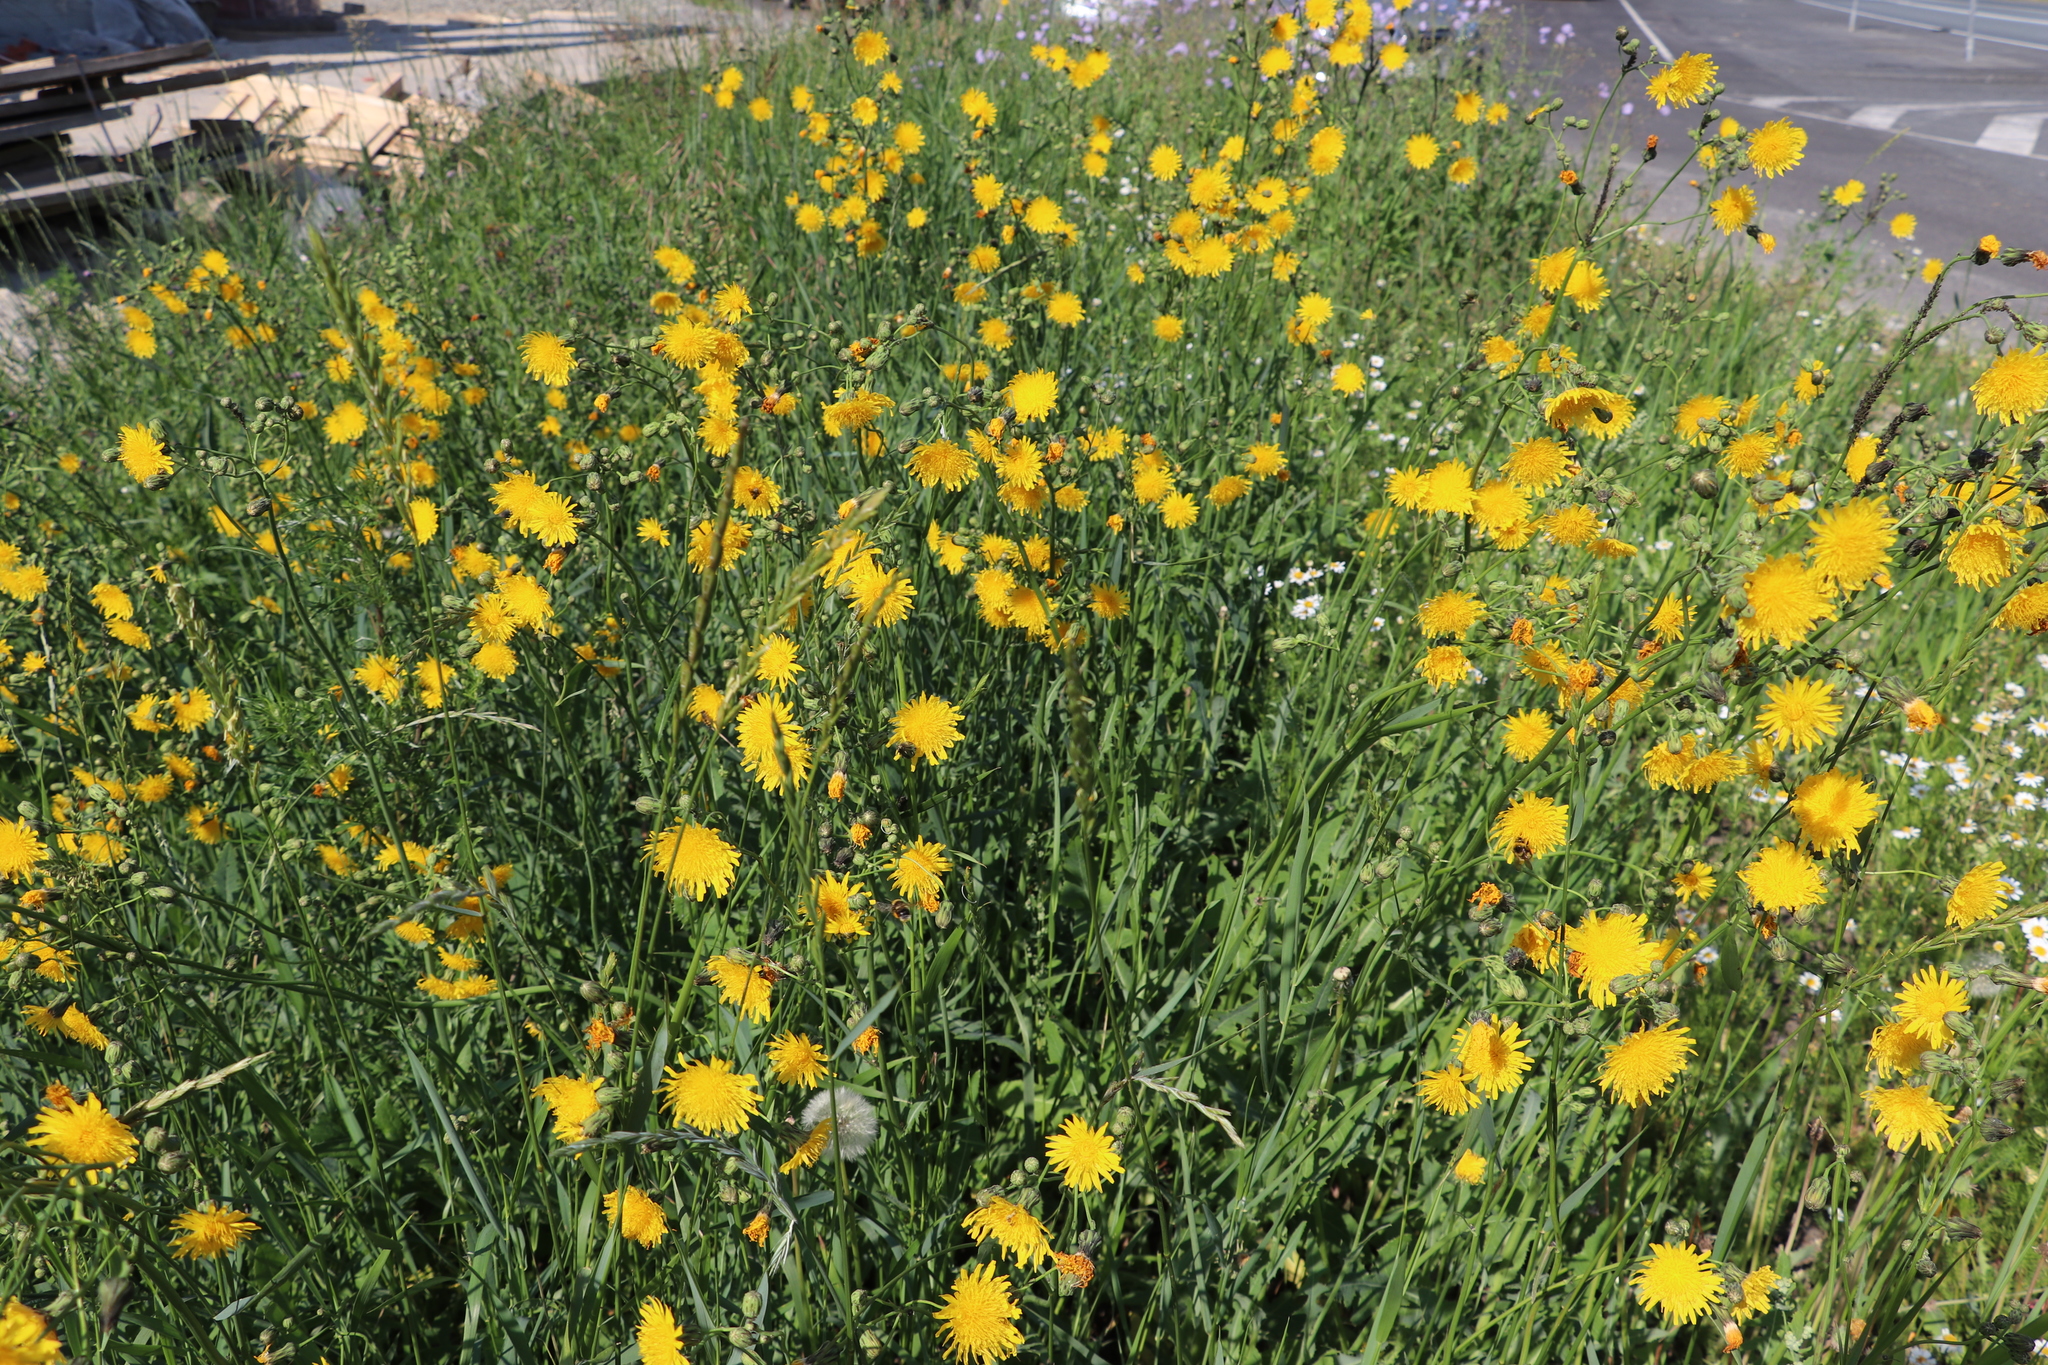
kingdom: Plantae
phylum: Tracheophyta
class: Magnoliopsida
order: Asterales
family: Asteraceae
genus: Sonchus
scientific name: Sonchus arvensis
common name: Perennial sow-thistle
